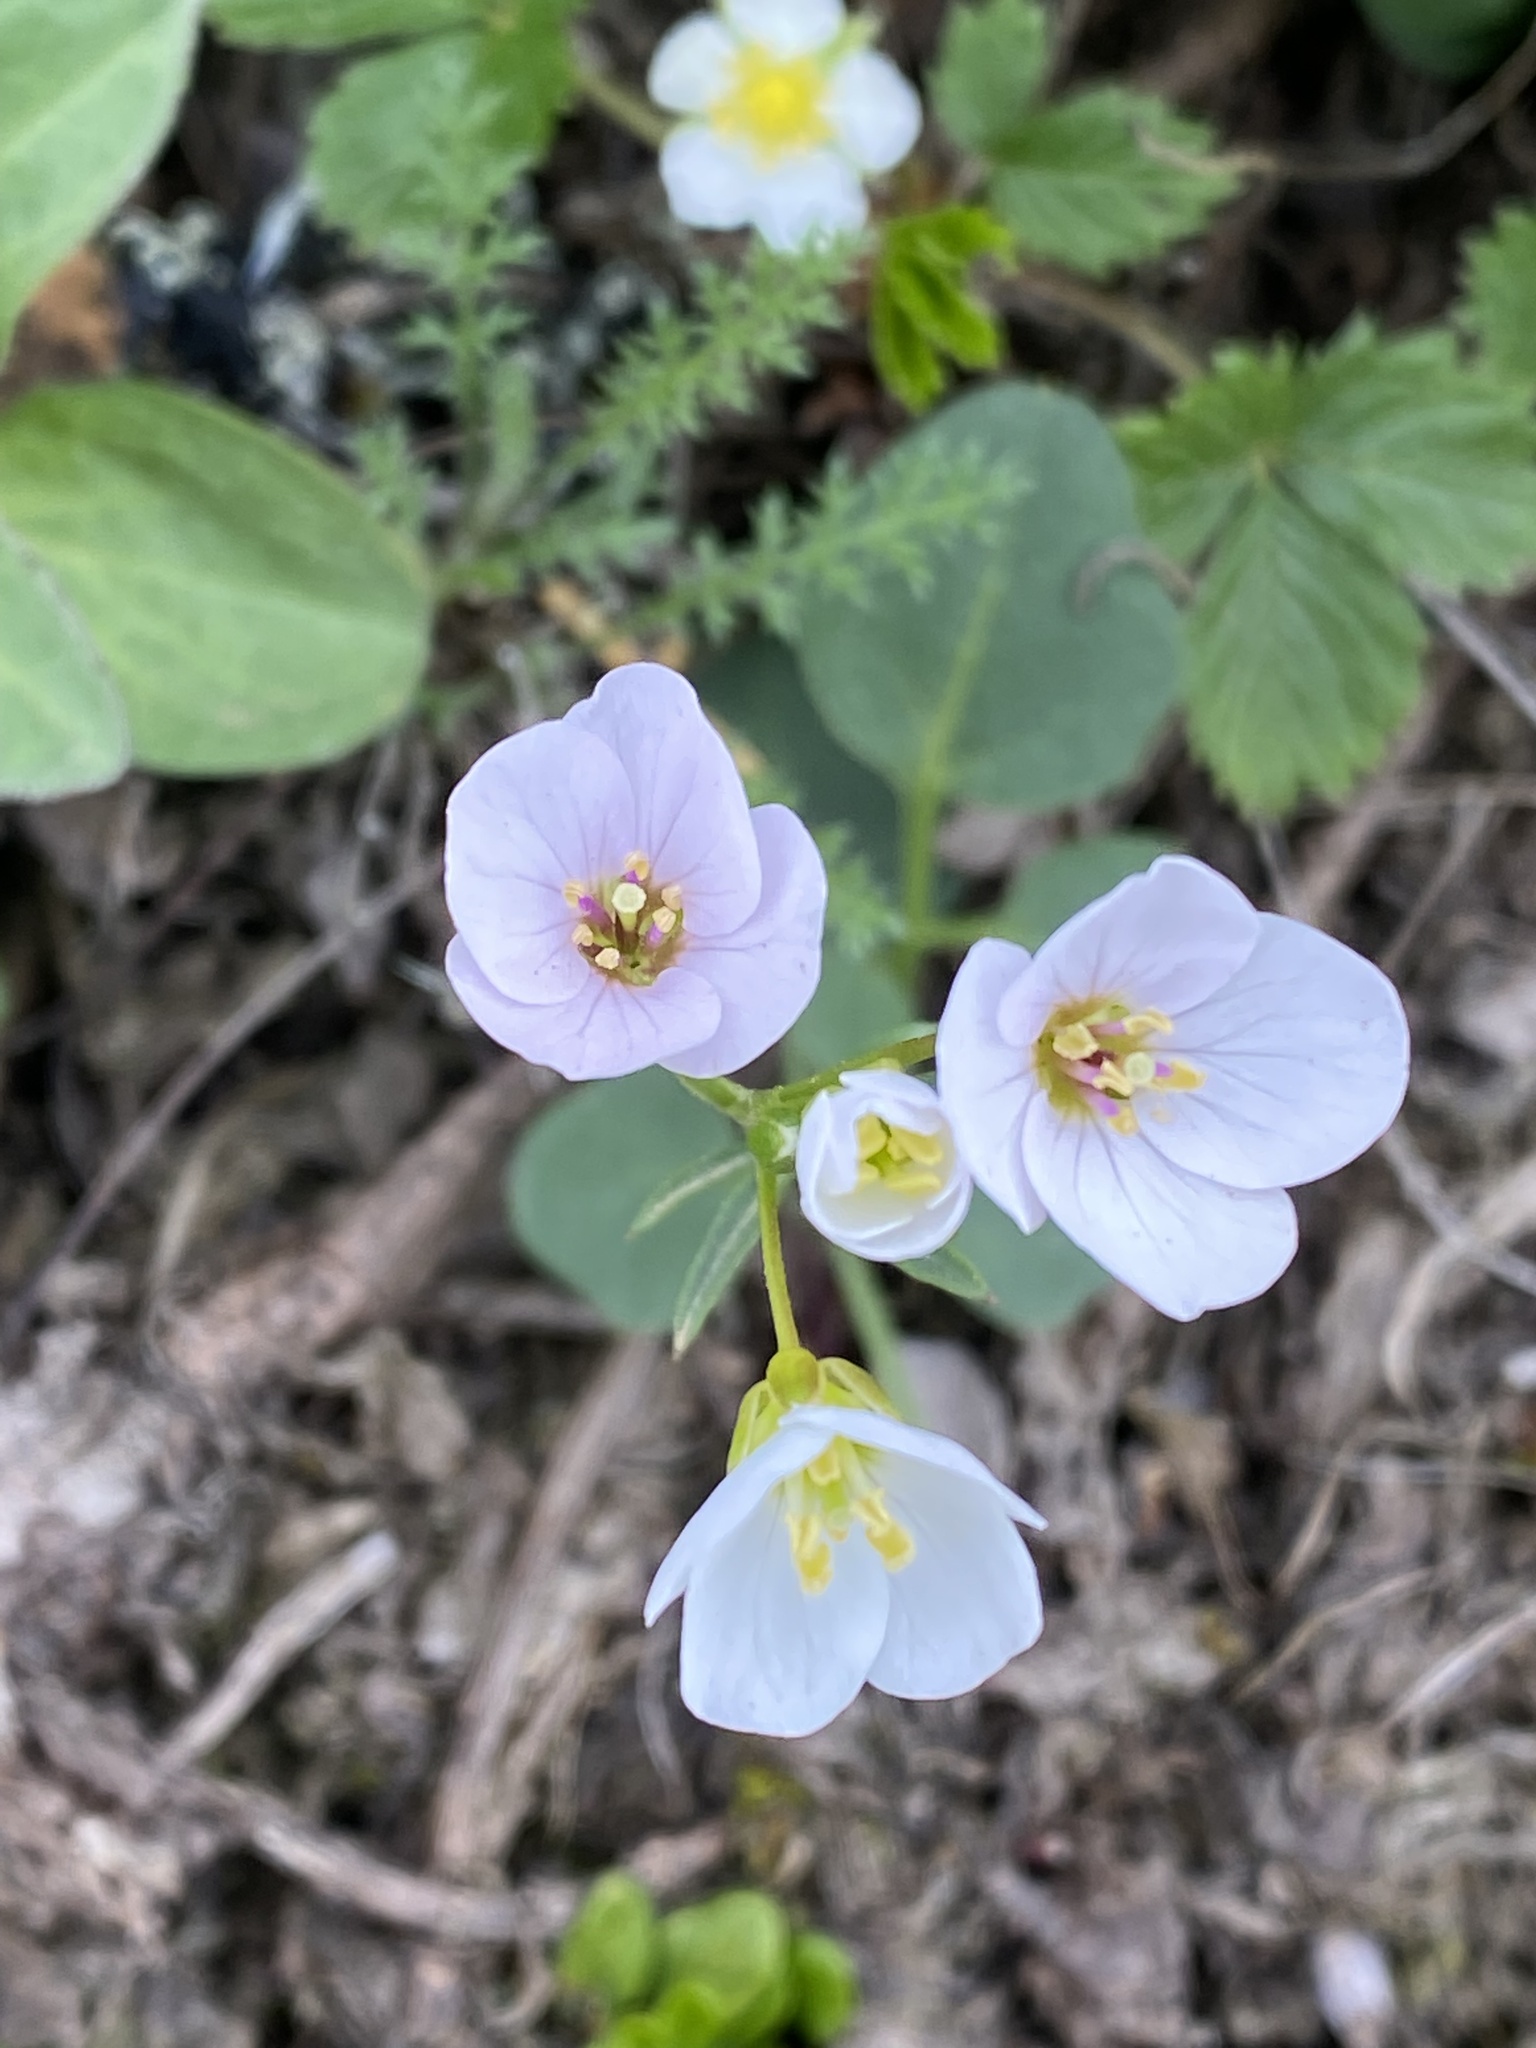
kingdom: Plantae
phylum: Tracheophyta
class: Magnoliopsida
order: Brassicales
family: Brassicaceae
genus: Cardamine
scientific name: Cardamine californica
